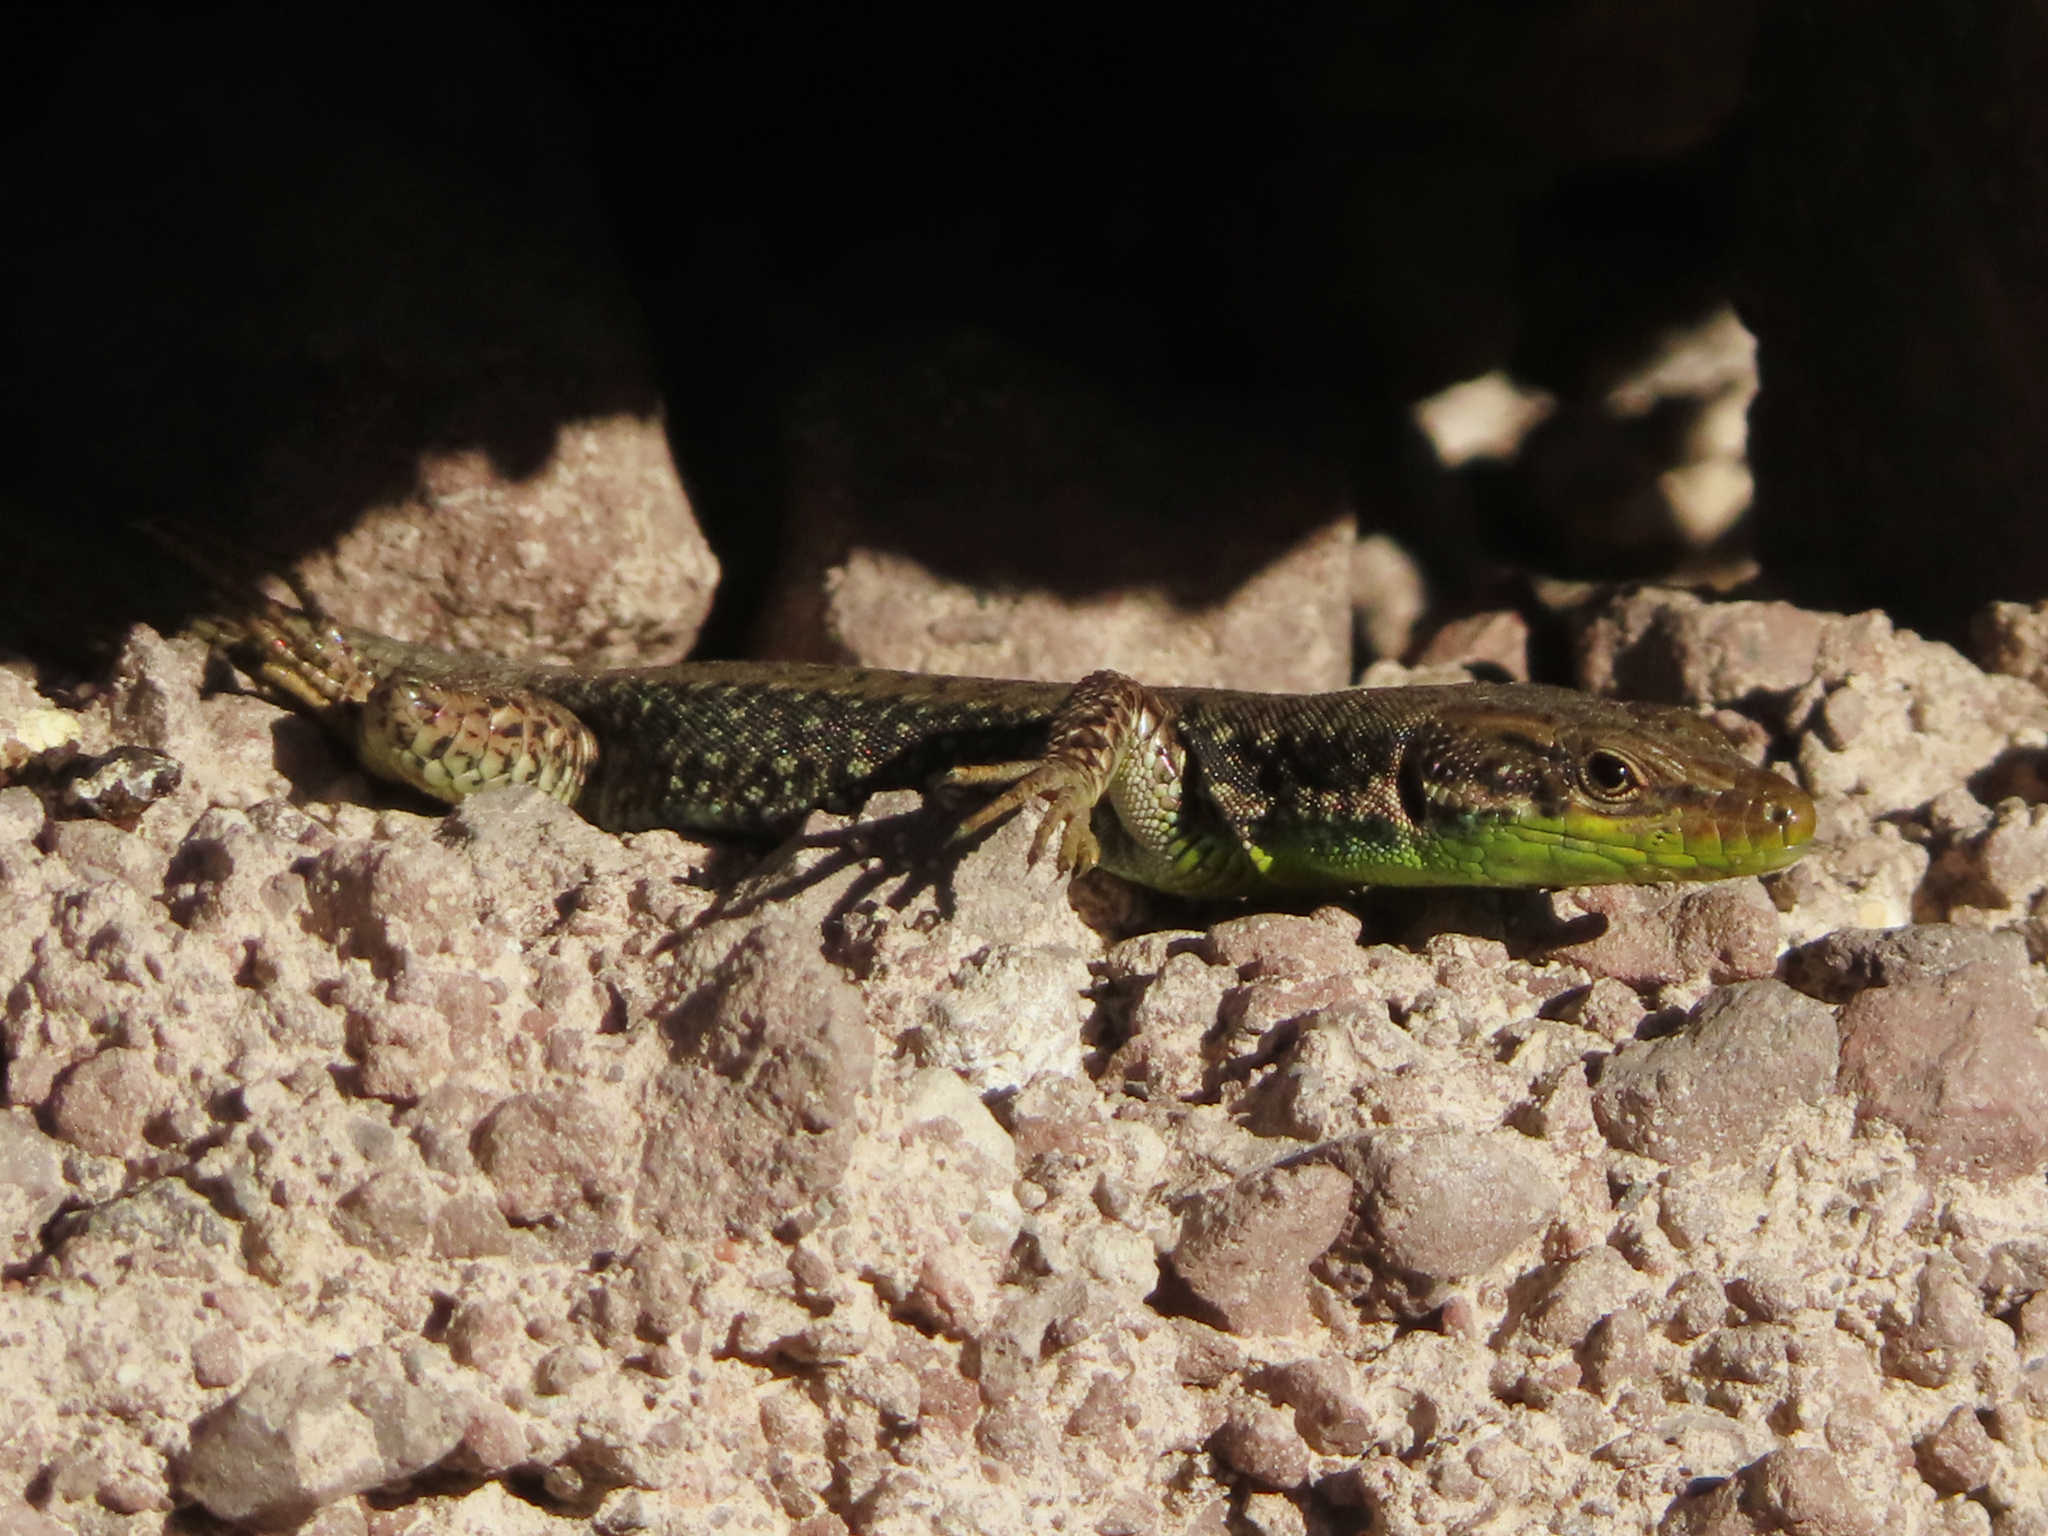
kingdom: Animalia
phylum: Chordata
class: Squamata
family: Lacertidae
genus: Darevskia
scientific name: Darevskia raddei
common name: Radde's lizard
